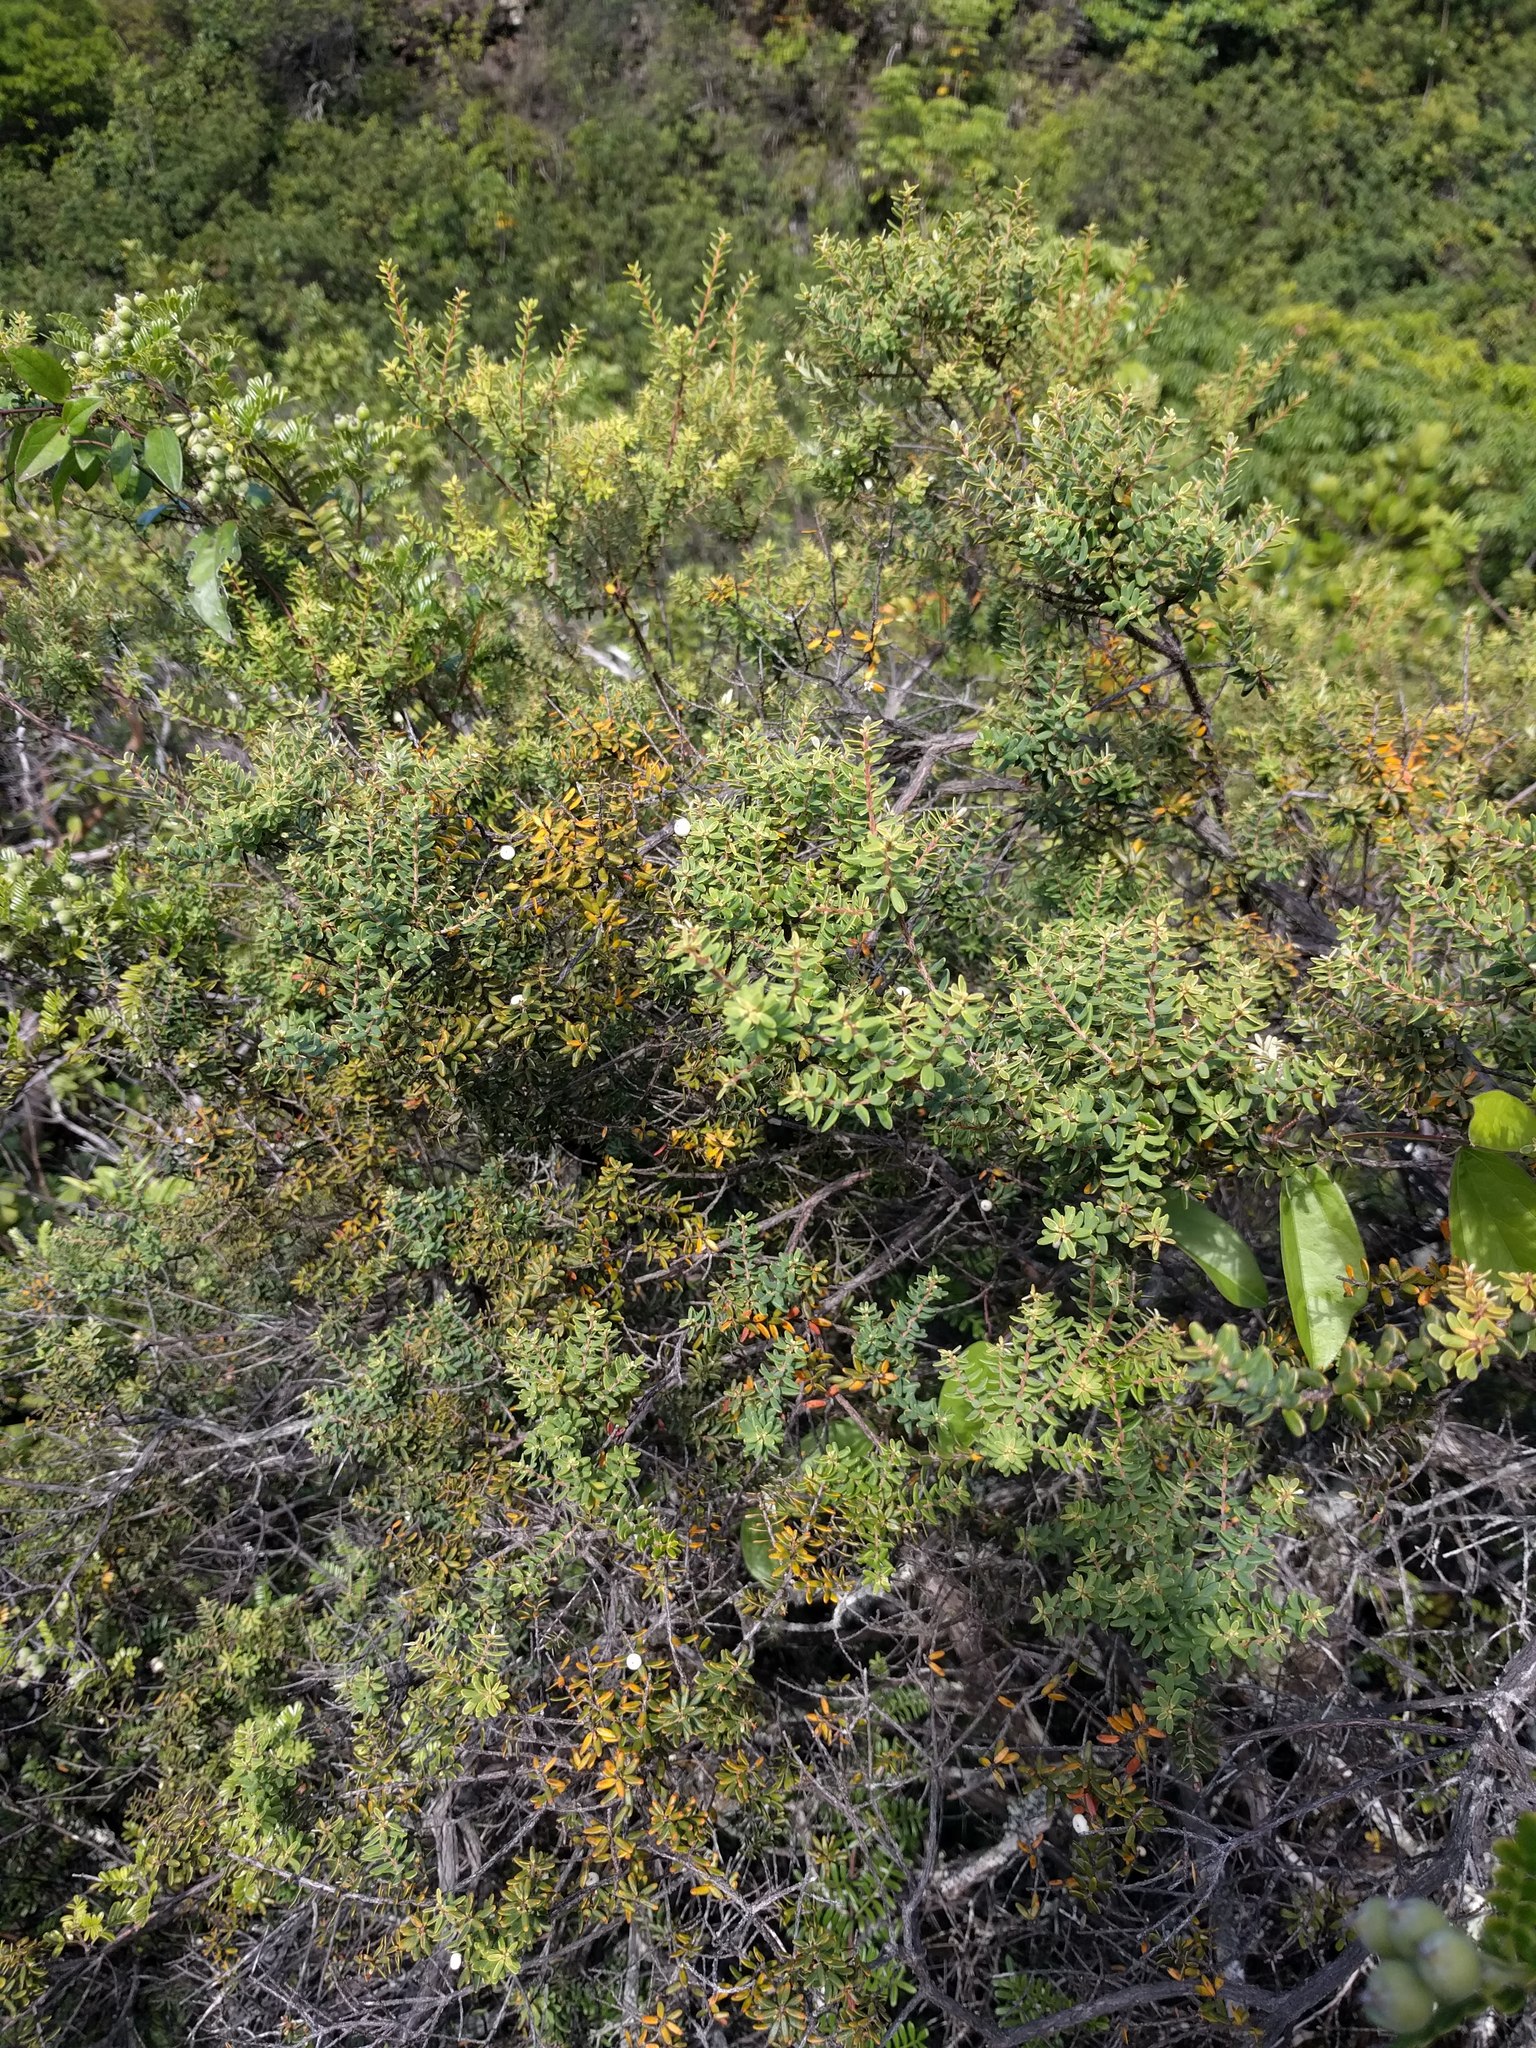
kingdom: Plantae
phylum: Tracheophyta
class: Magnoliopsida
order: Ericales
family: Ericaceae
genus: Leptecophylla
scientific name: Leptecophylla tameiameiae
